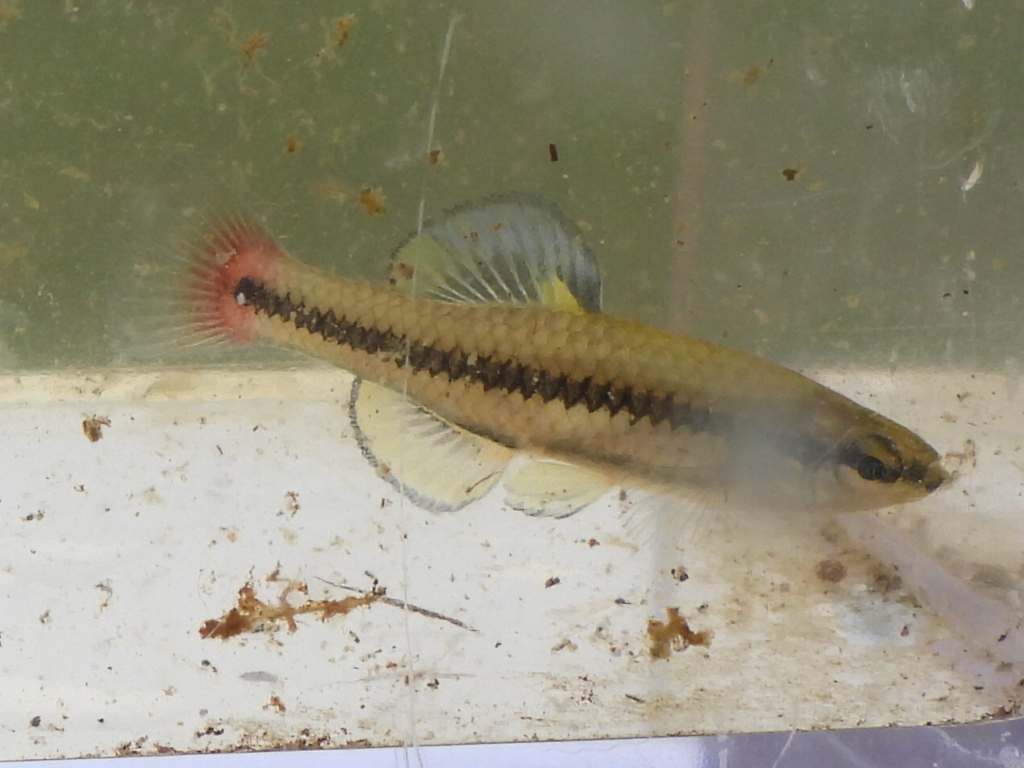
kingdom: Animalia
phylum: Chordata
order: Cyprinodontiformes
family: Fundulidae
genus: Lucania
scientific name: Lucania goodei
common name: Bluefin killifish
